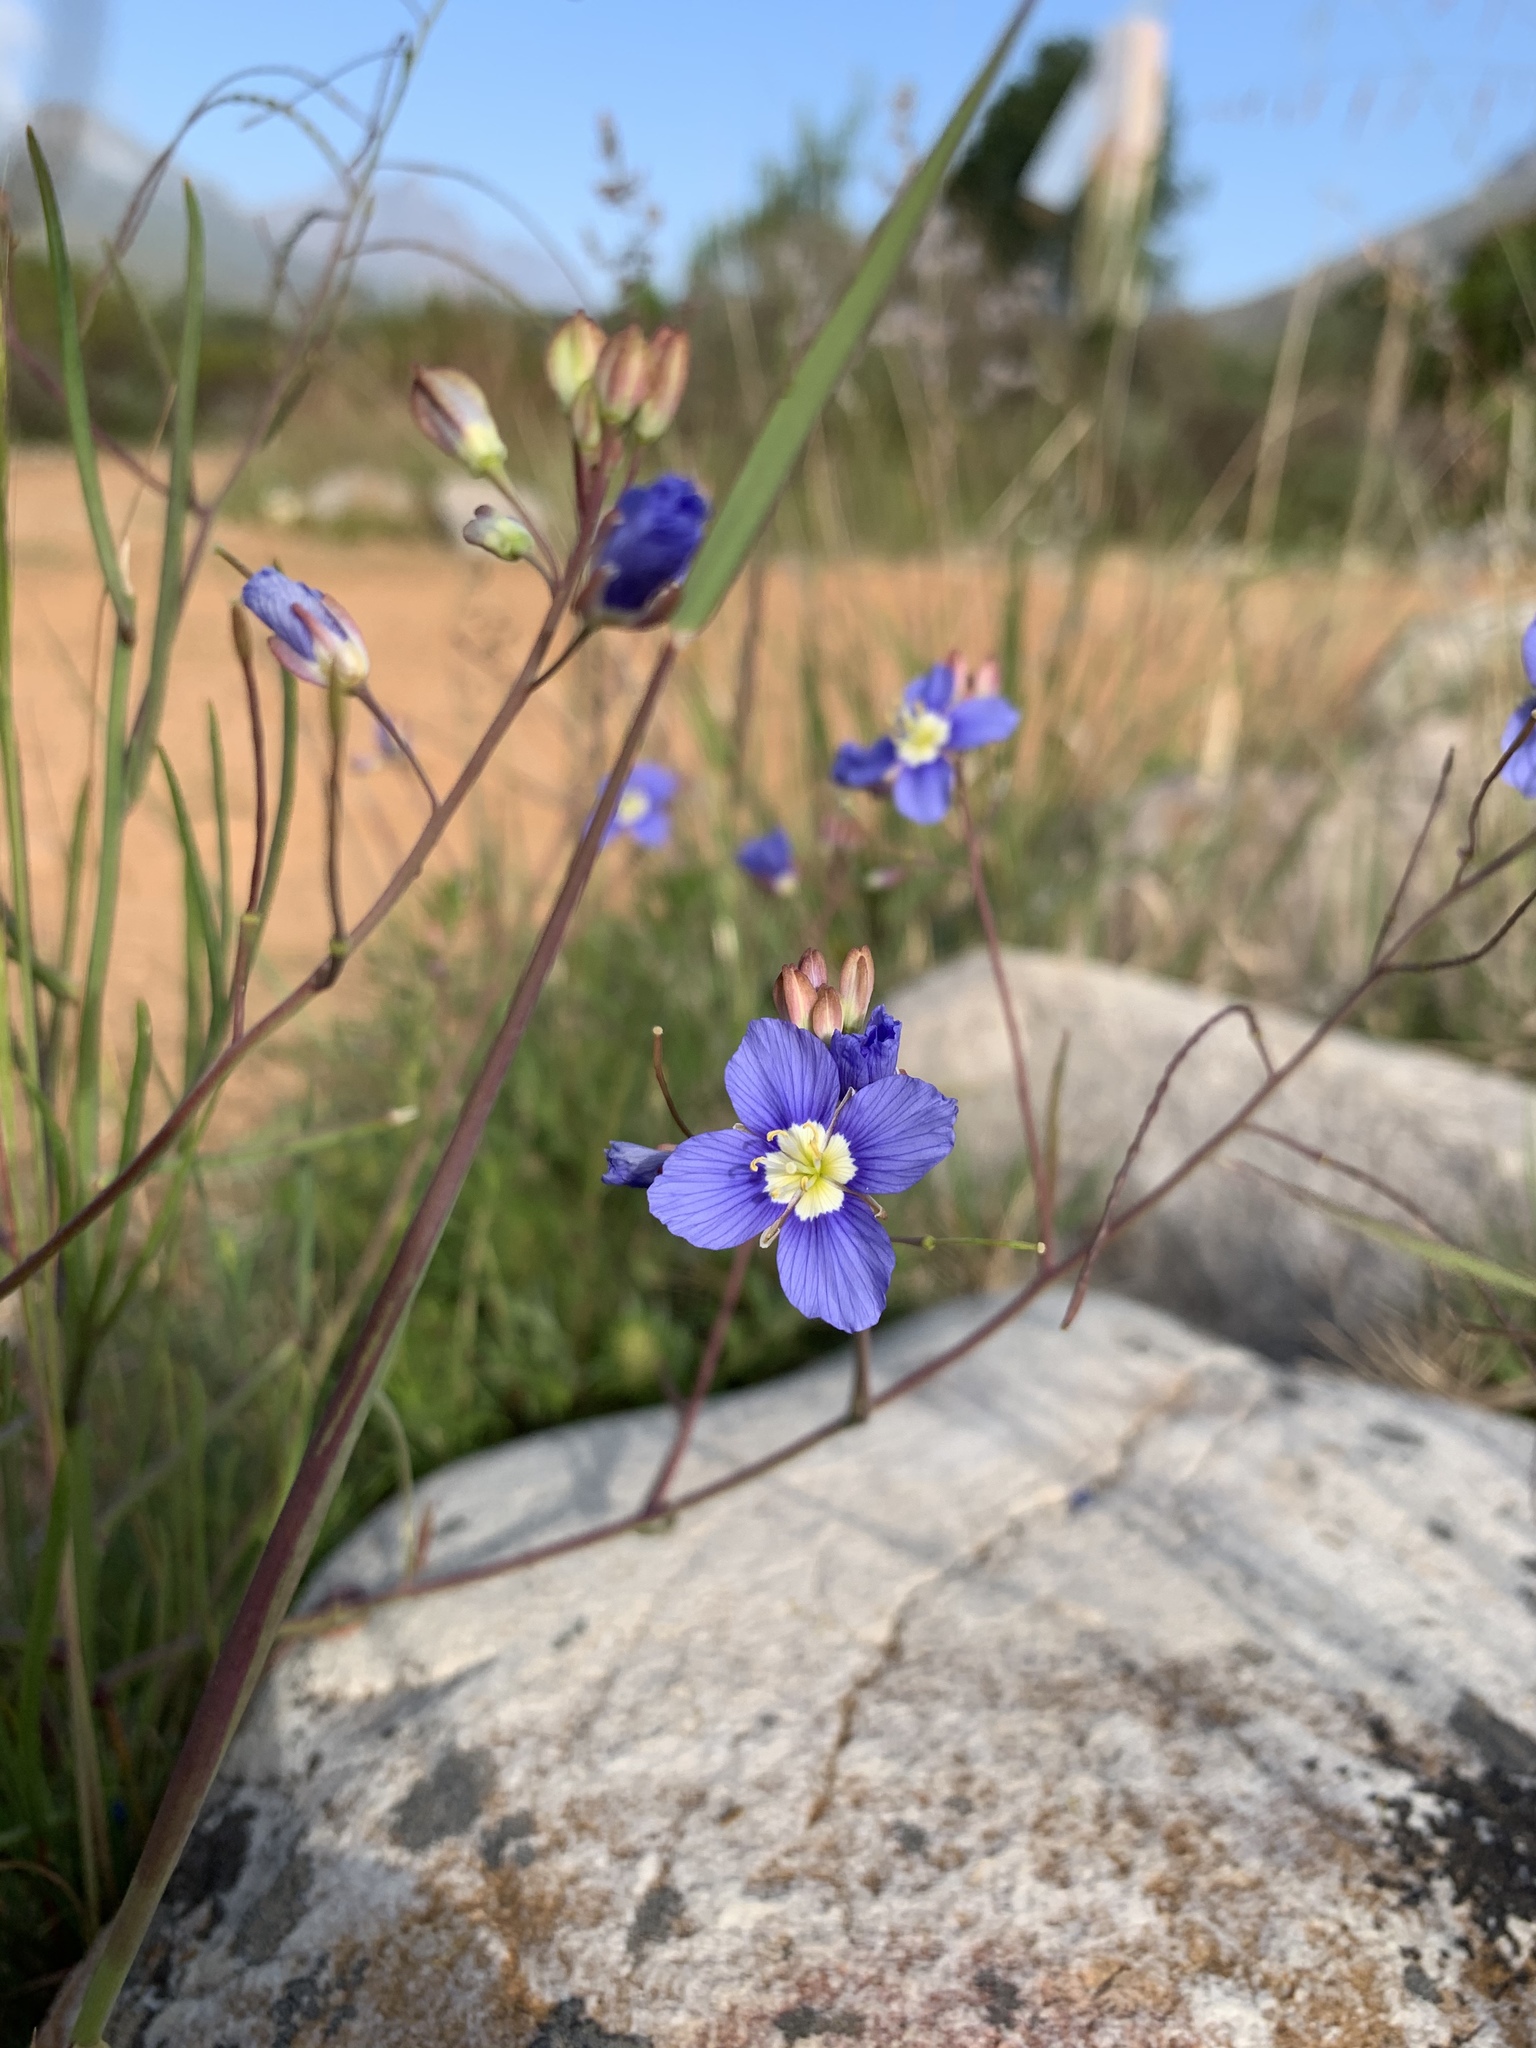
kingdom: Plantae
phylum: Tracheophyta
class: Magnoliopsida
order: Brassicales
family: Brassicaceae
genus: Heliophila
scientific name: Heliophila coronopifolia
